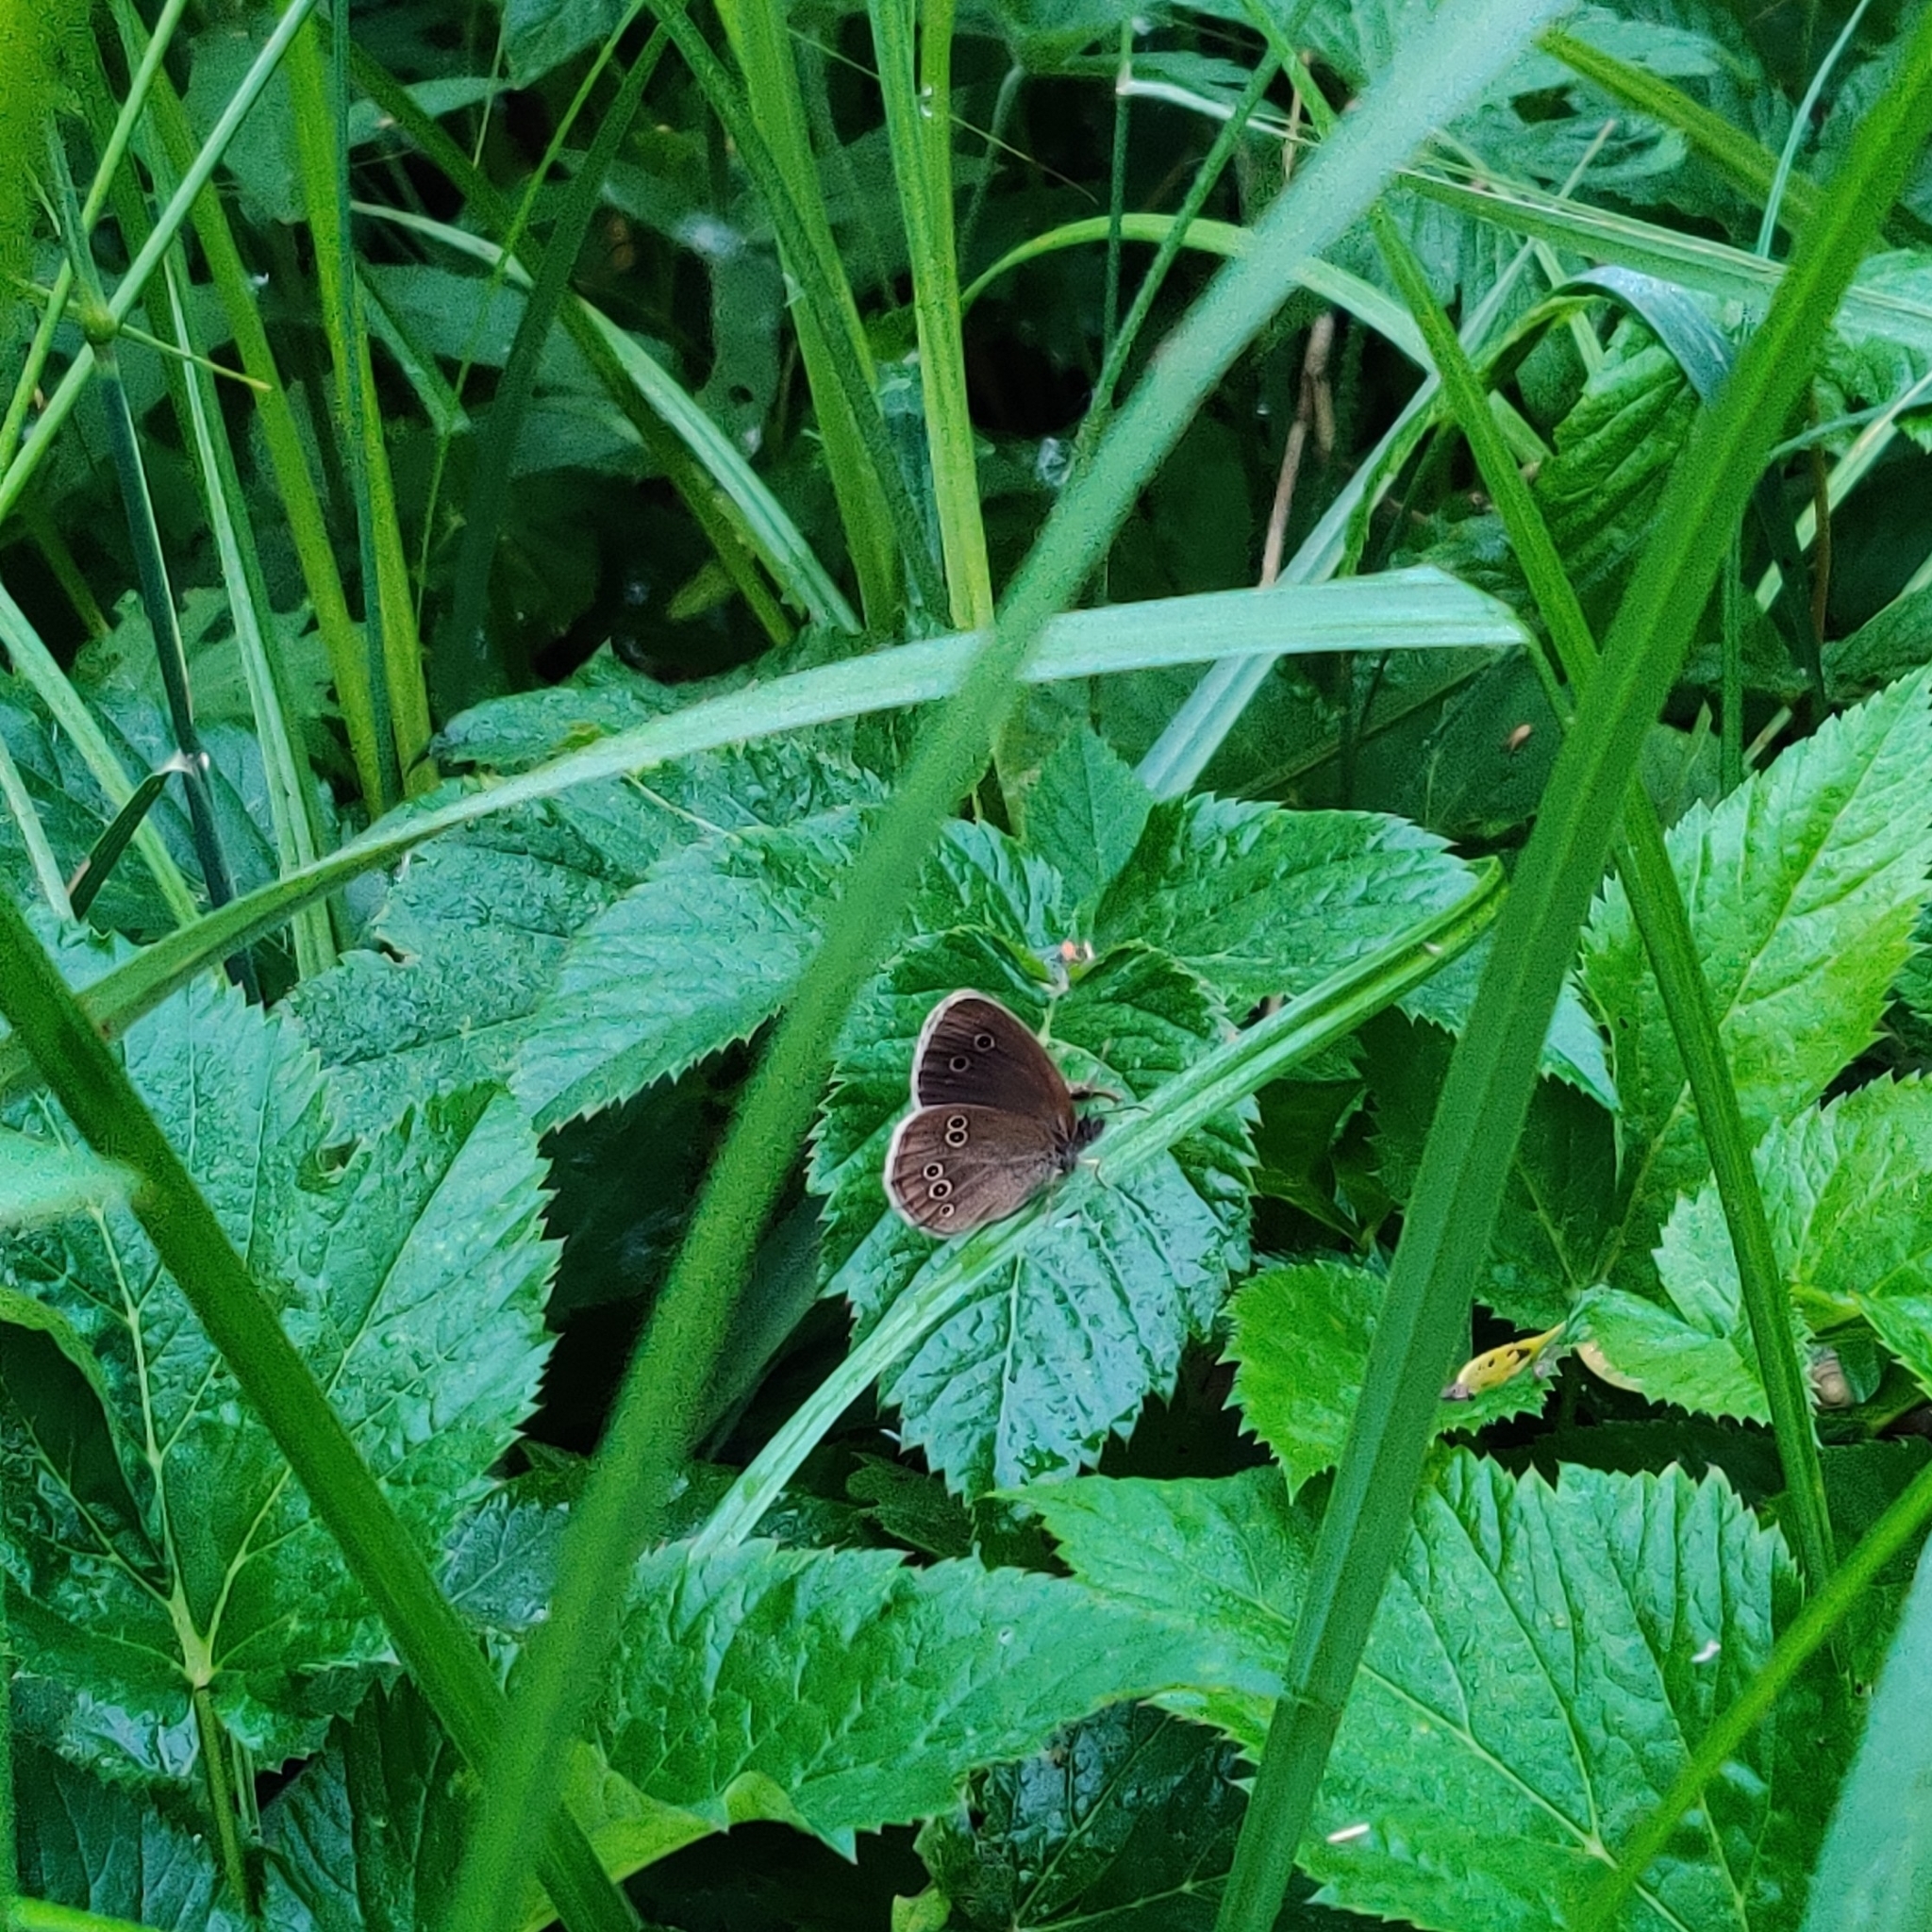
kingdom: Animalia
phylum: Arthropoda
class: Insecta
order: Lepidoptera
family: Nymphalidae
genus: Aphantopus
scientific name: Aphantopus hyperantus
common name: Ringlet
